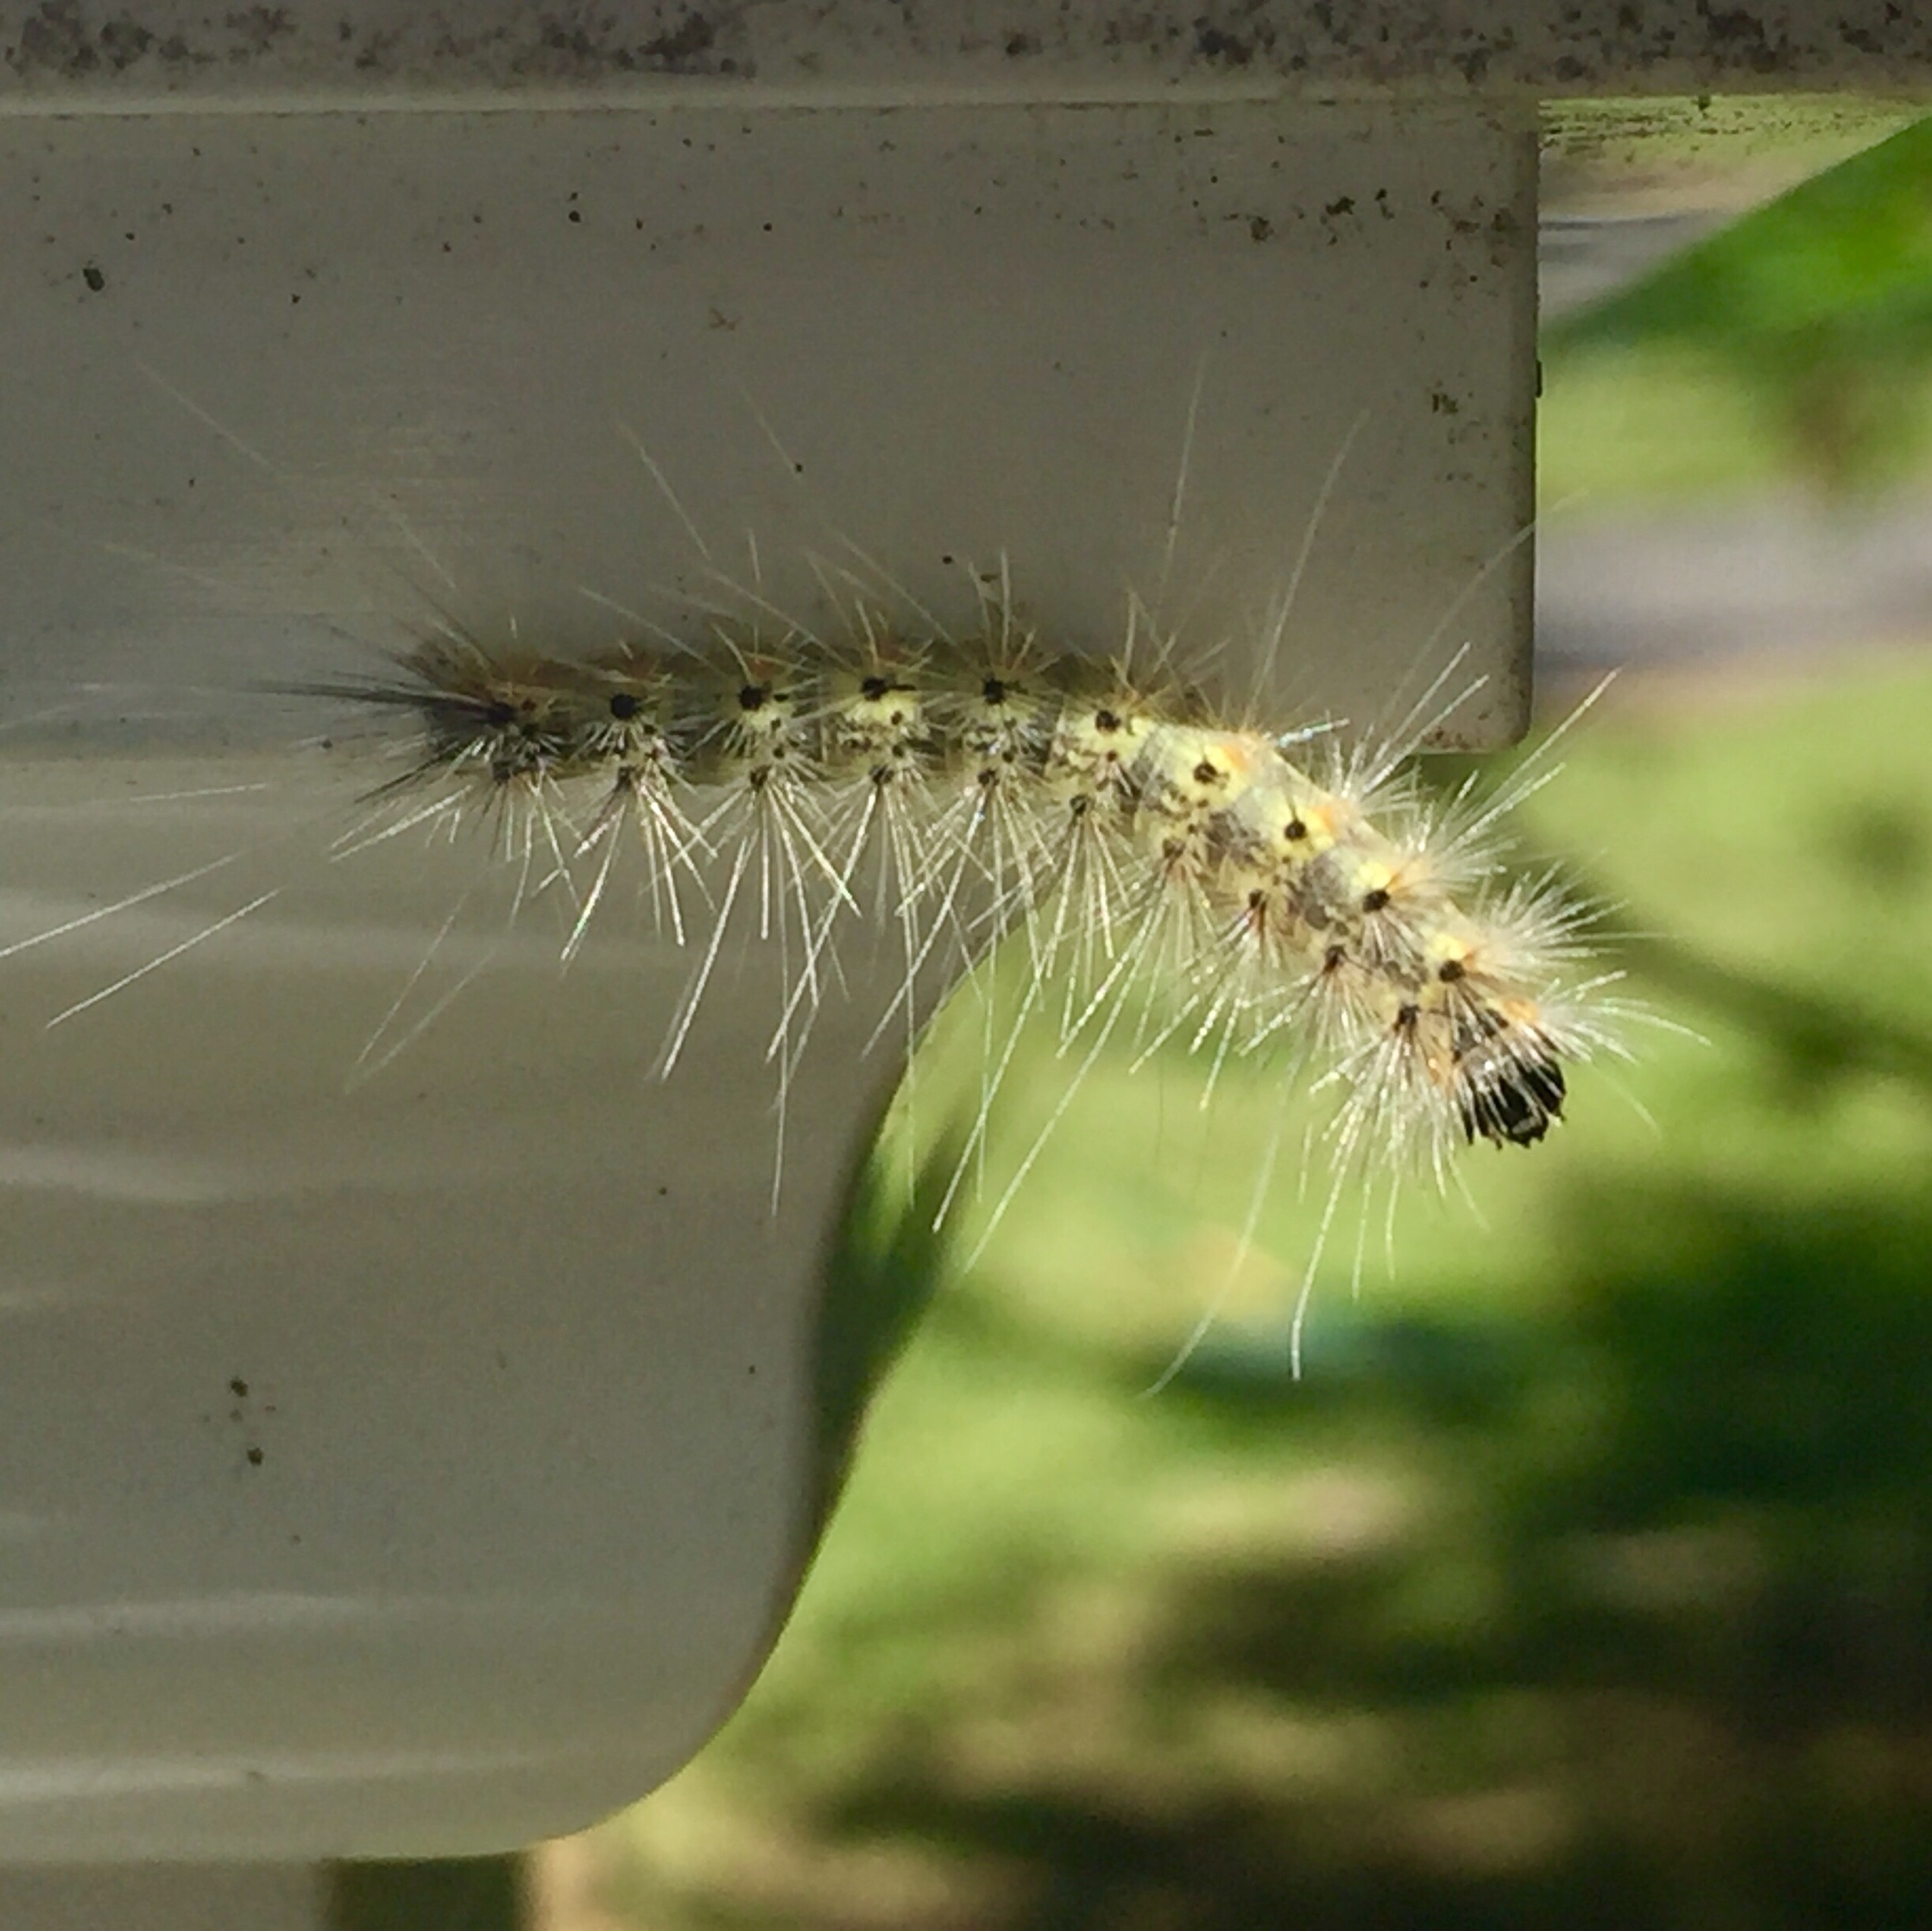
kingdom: Animalia
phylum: Arthropoda
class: Insecta
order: Lepidoptera
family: Erebidae
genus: Hyphantria
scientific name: Hyphantria cunea
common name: American white moth
